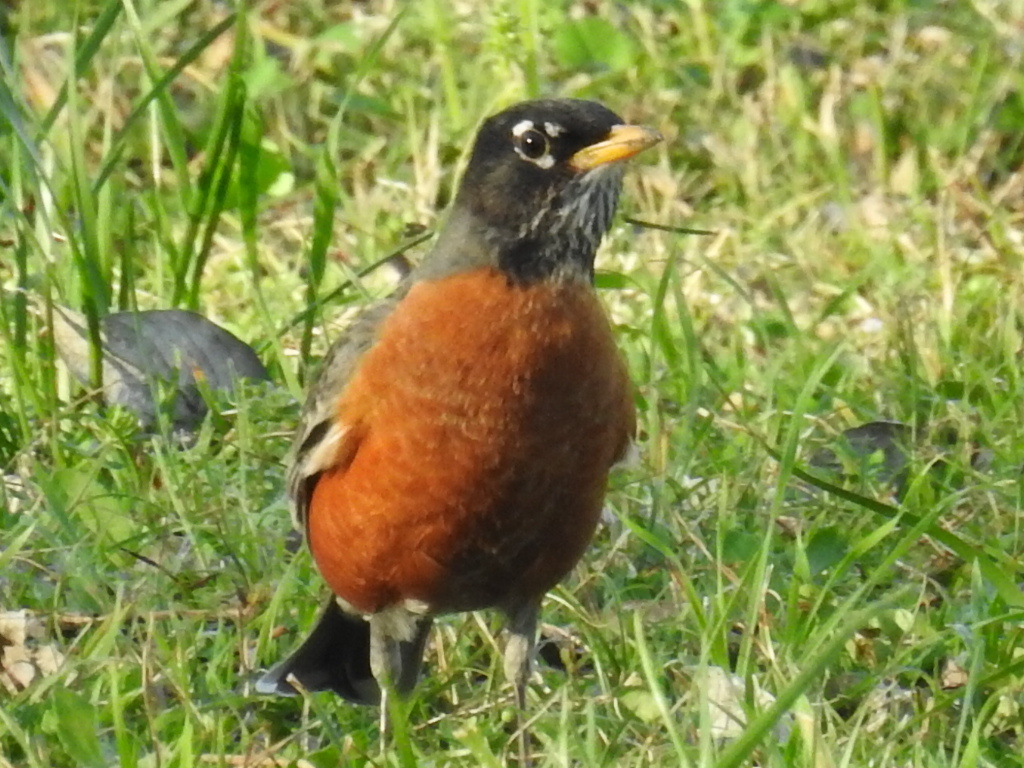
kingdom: Animalia
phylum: Chordata
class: Aves
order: Passeriformes
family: Turdidae
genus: Turdus
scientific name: Turdus migratorius
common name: American robin
